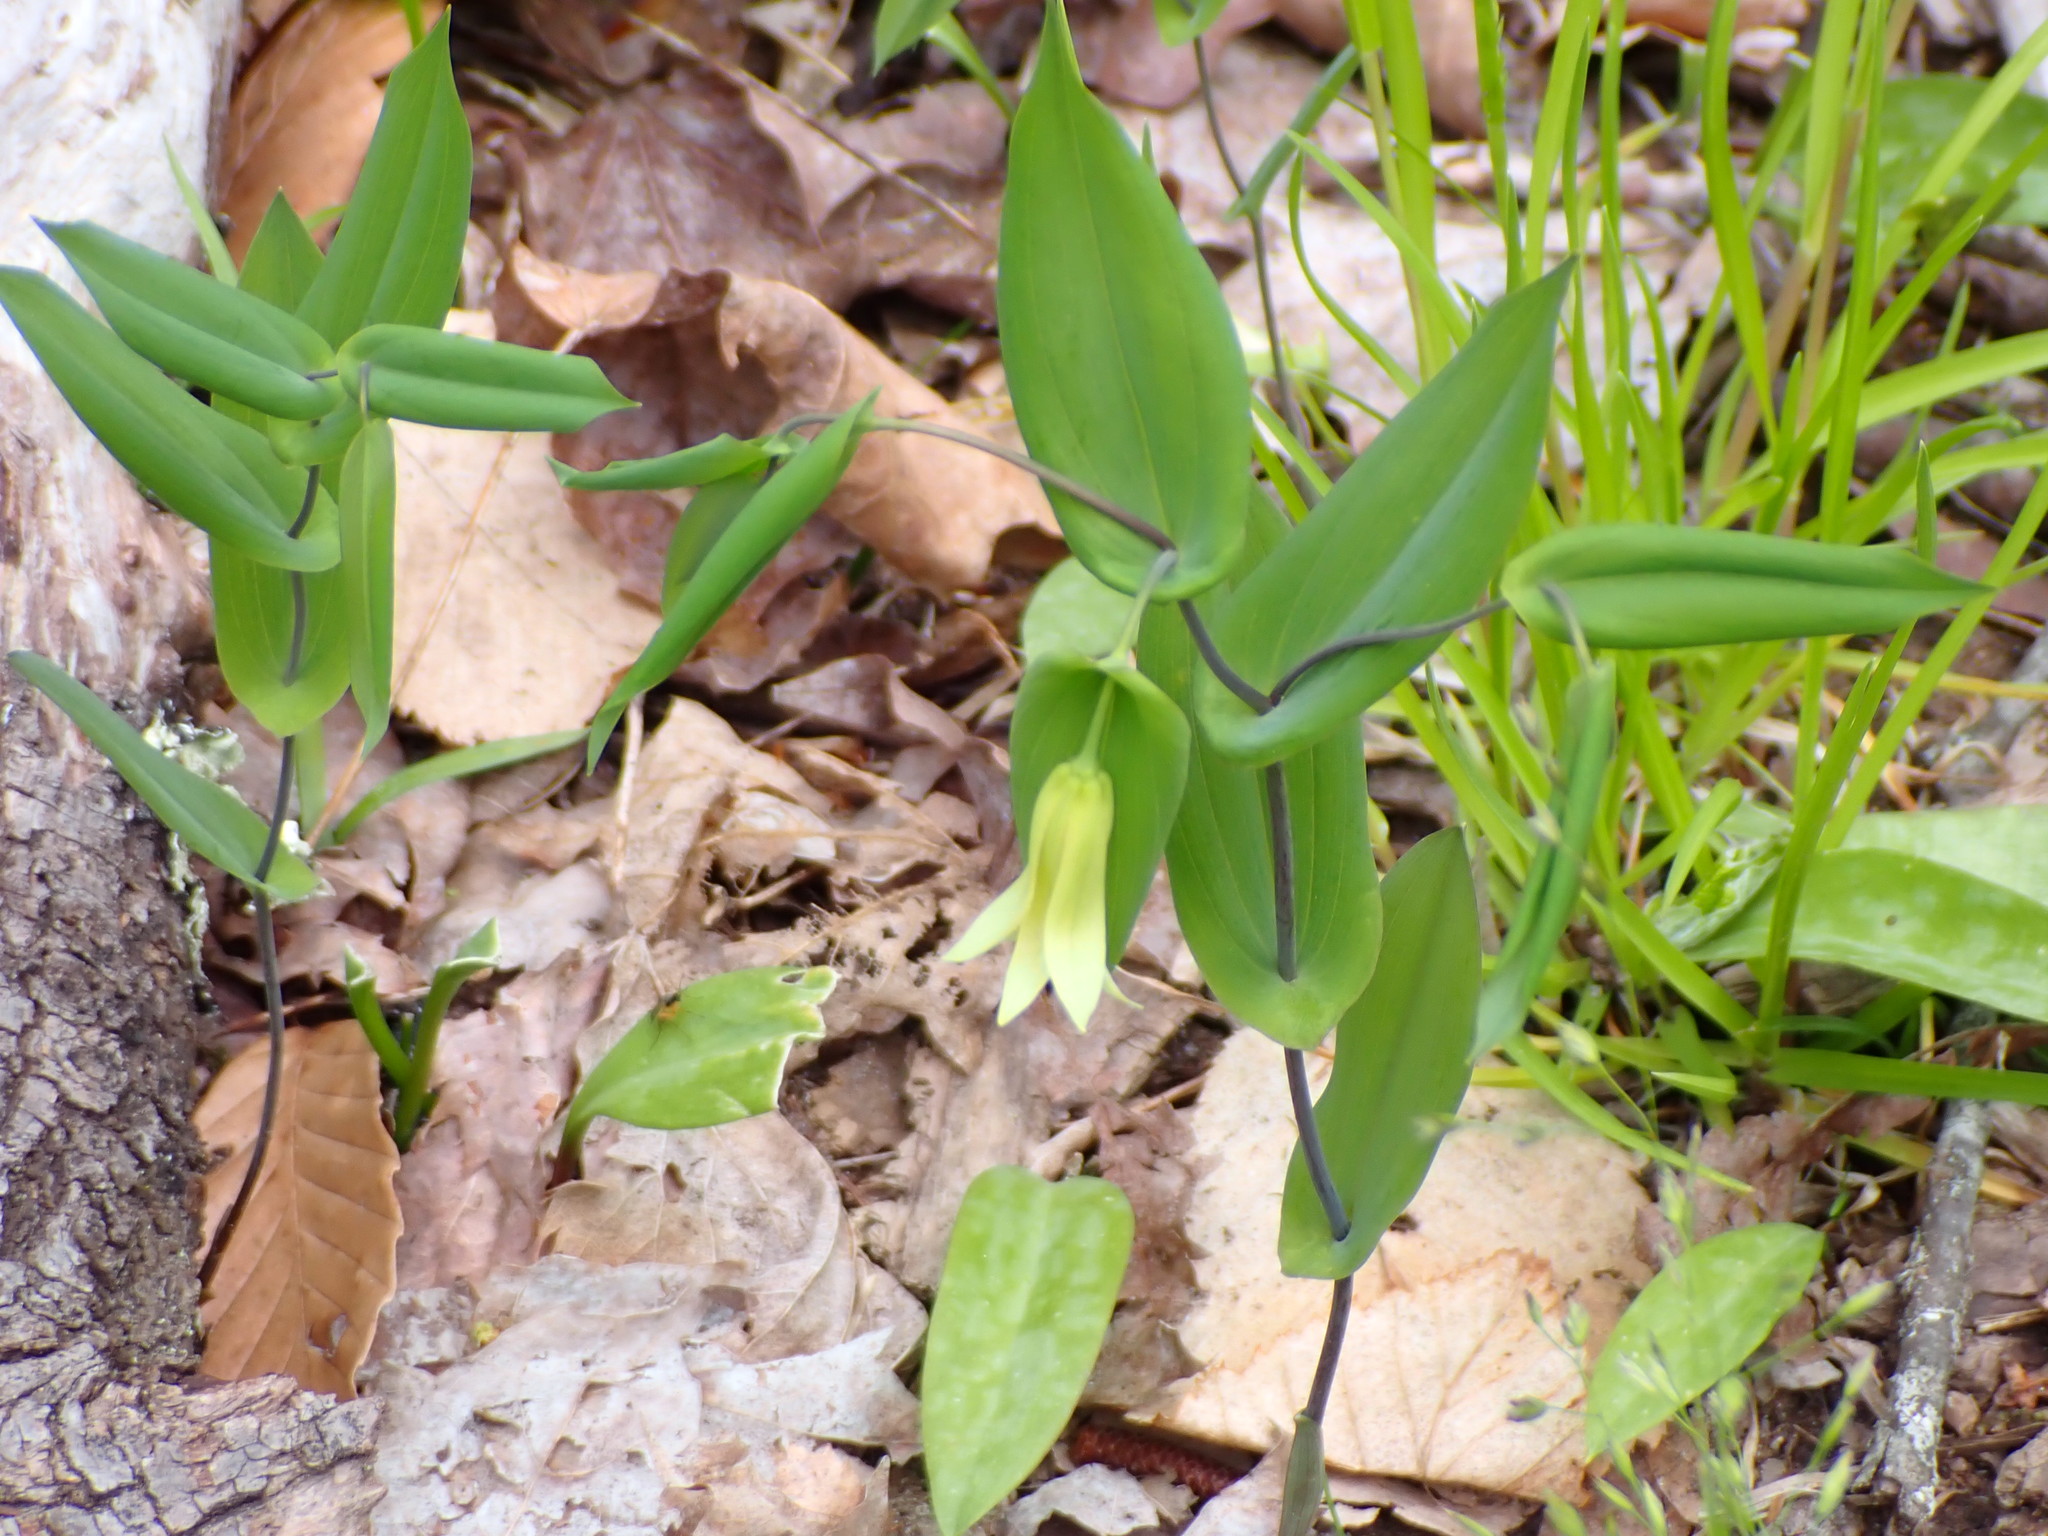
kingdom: Plantae
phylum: Tracheophyta
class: Liliopsida
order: Liliales
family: Colchicaceae
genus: Uvularia
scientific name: Uvularia perfoliata
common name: Perfoliate bellwort
